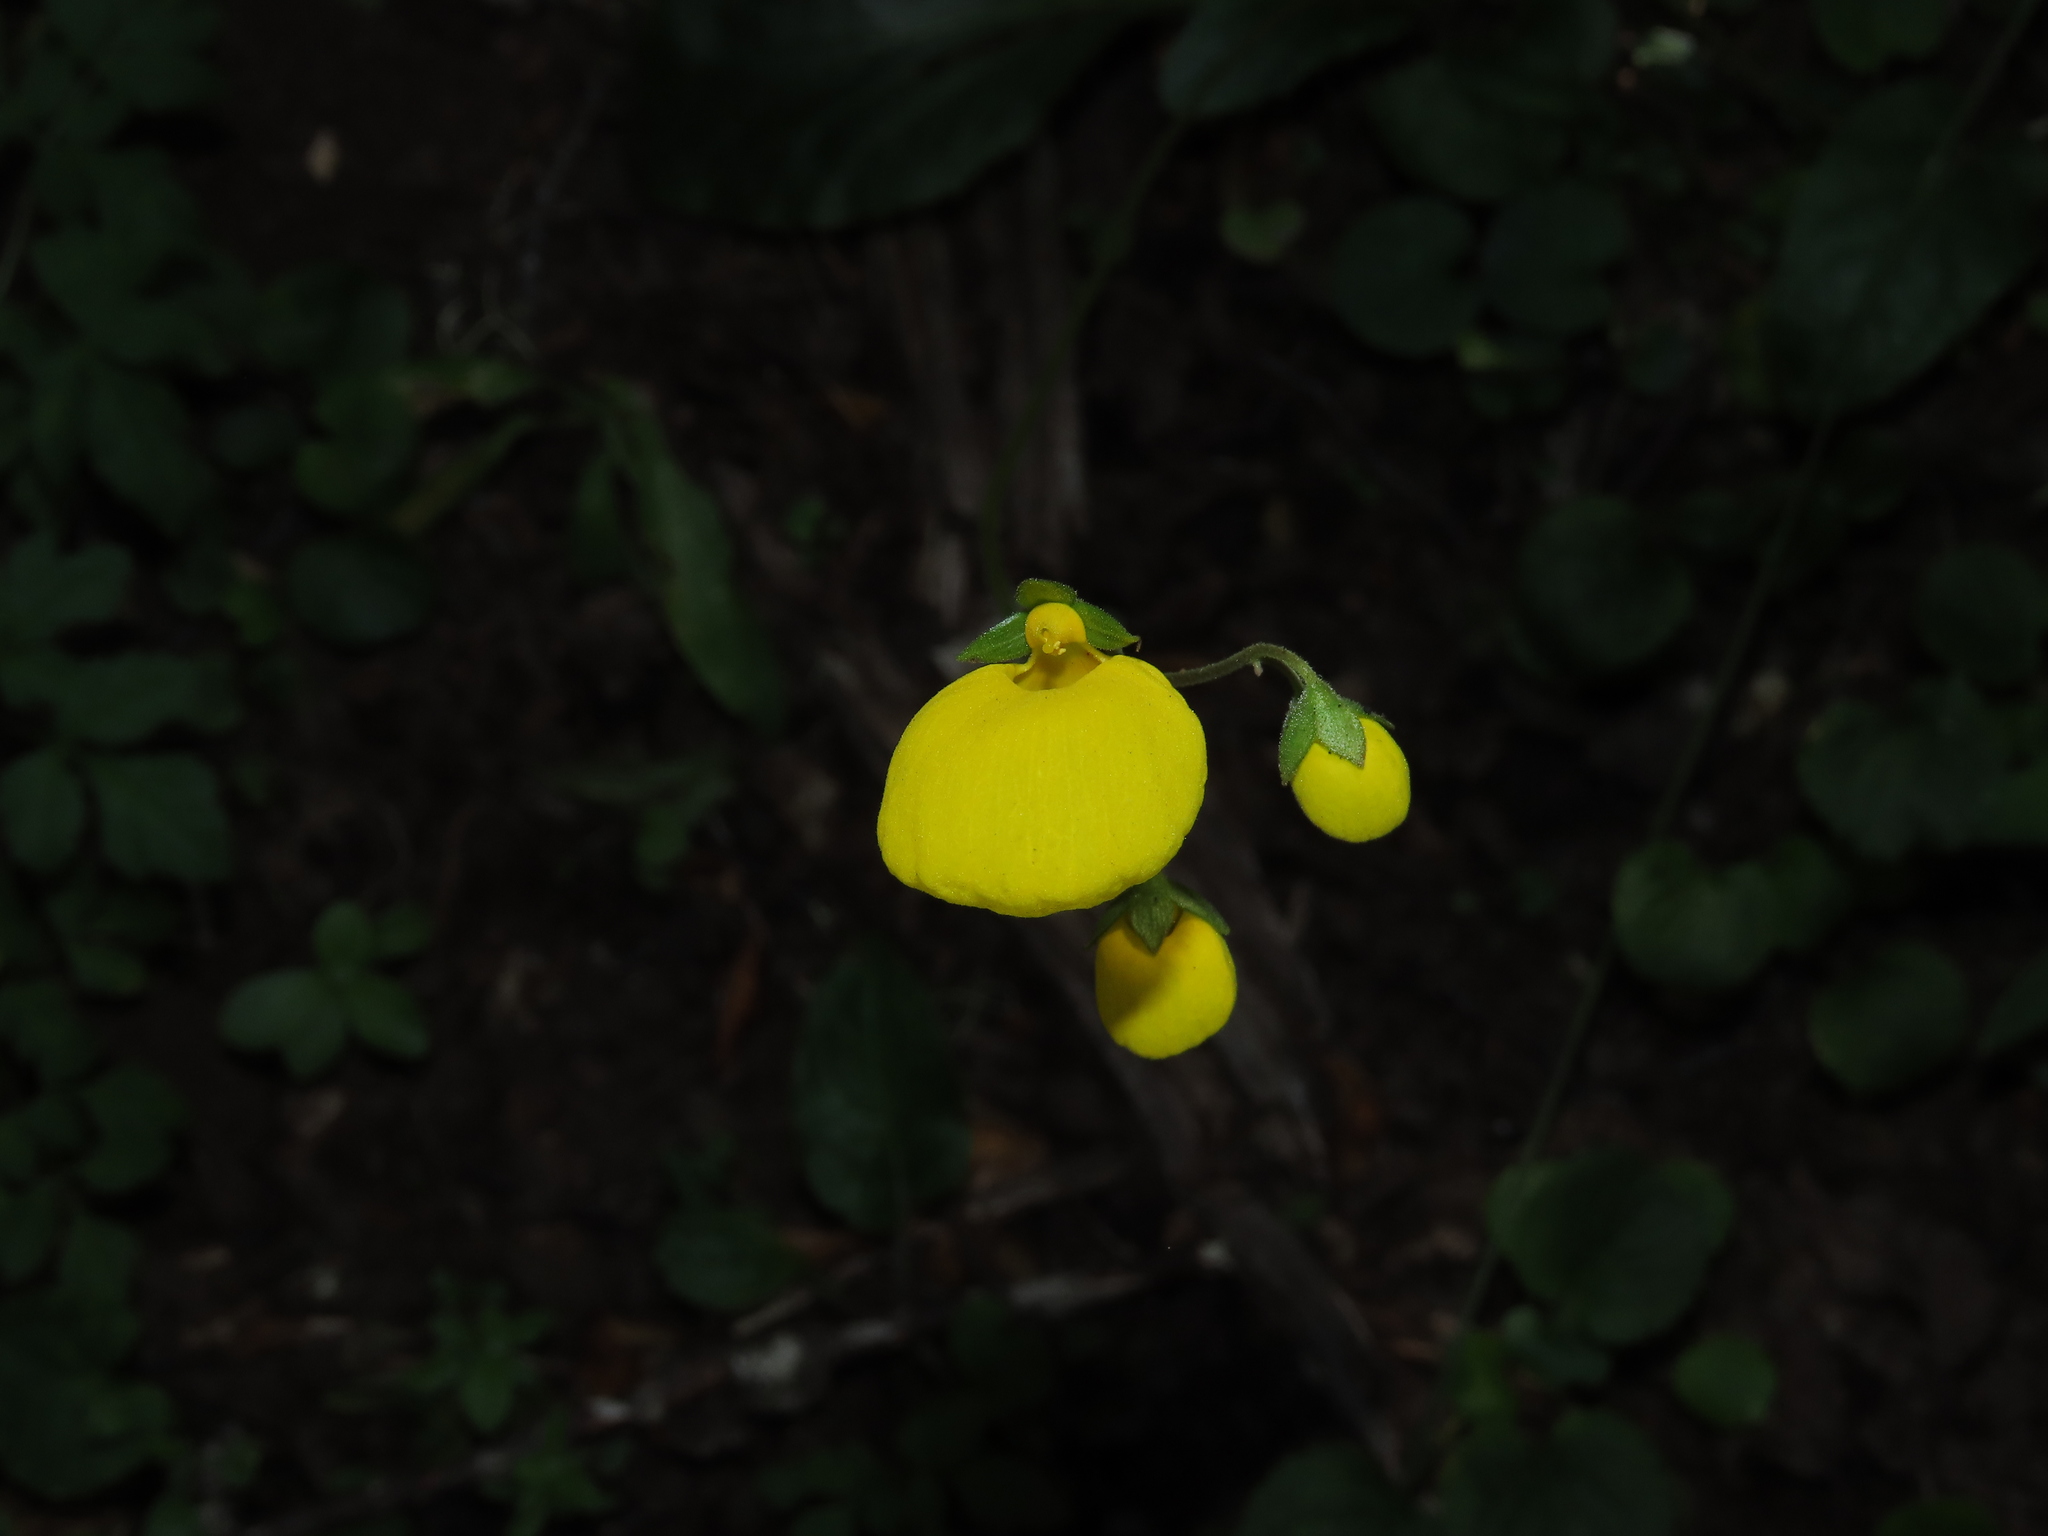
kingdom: Plantae
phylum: Tracheophyta
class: Magnoliopsida
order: Lamiales
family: Calceolariaceae
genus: Calceolaria
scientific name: Calceolaria filicaulis
